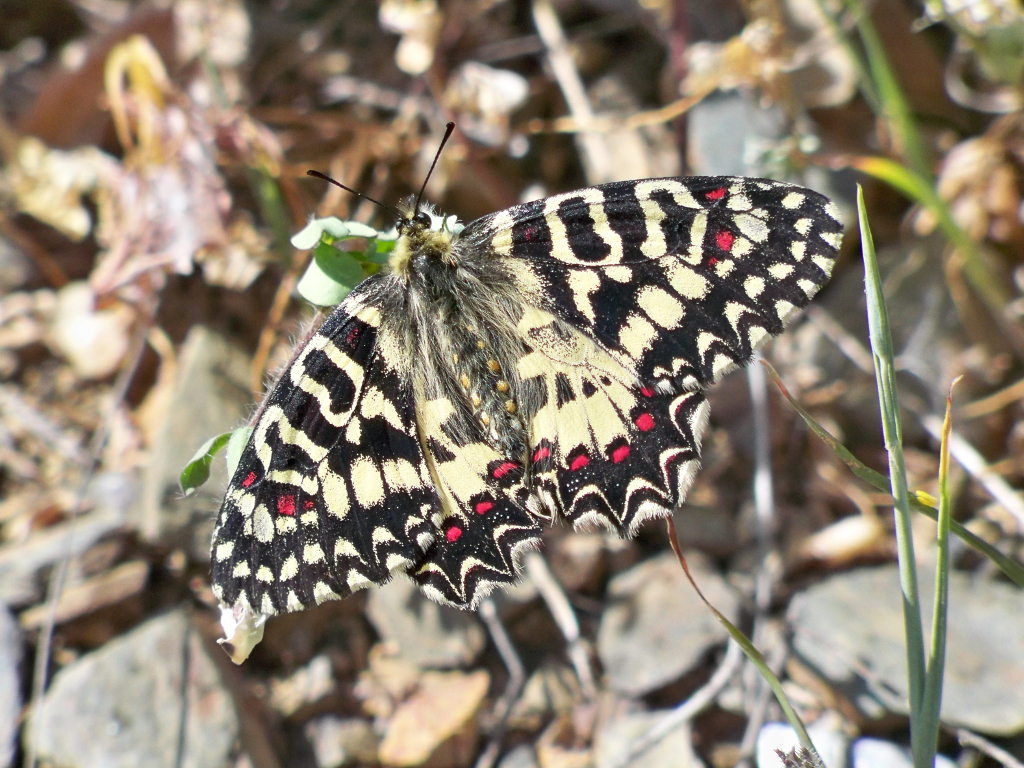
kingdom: Animalia
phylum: Arthropoda
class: Insecta
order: Lepidoptera
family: Papilionidae
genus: Zerynthia
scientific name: Zerynthia rumina
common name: Spanish festoon
